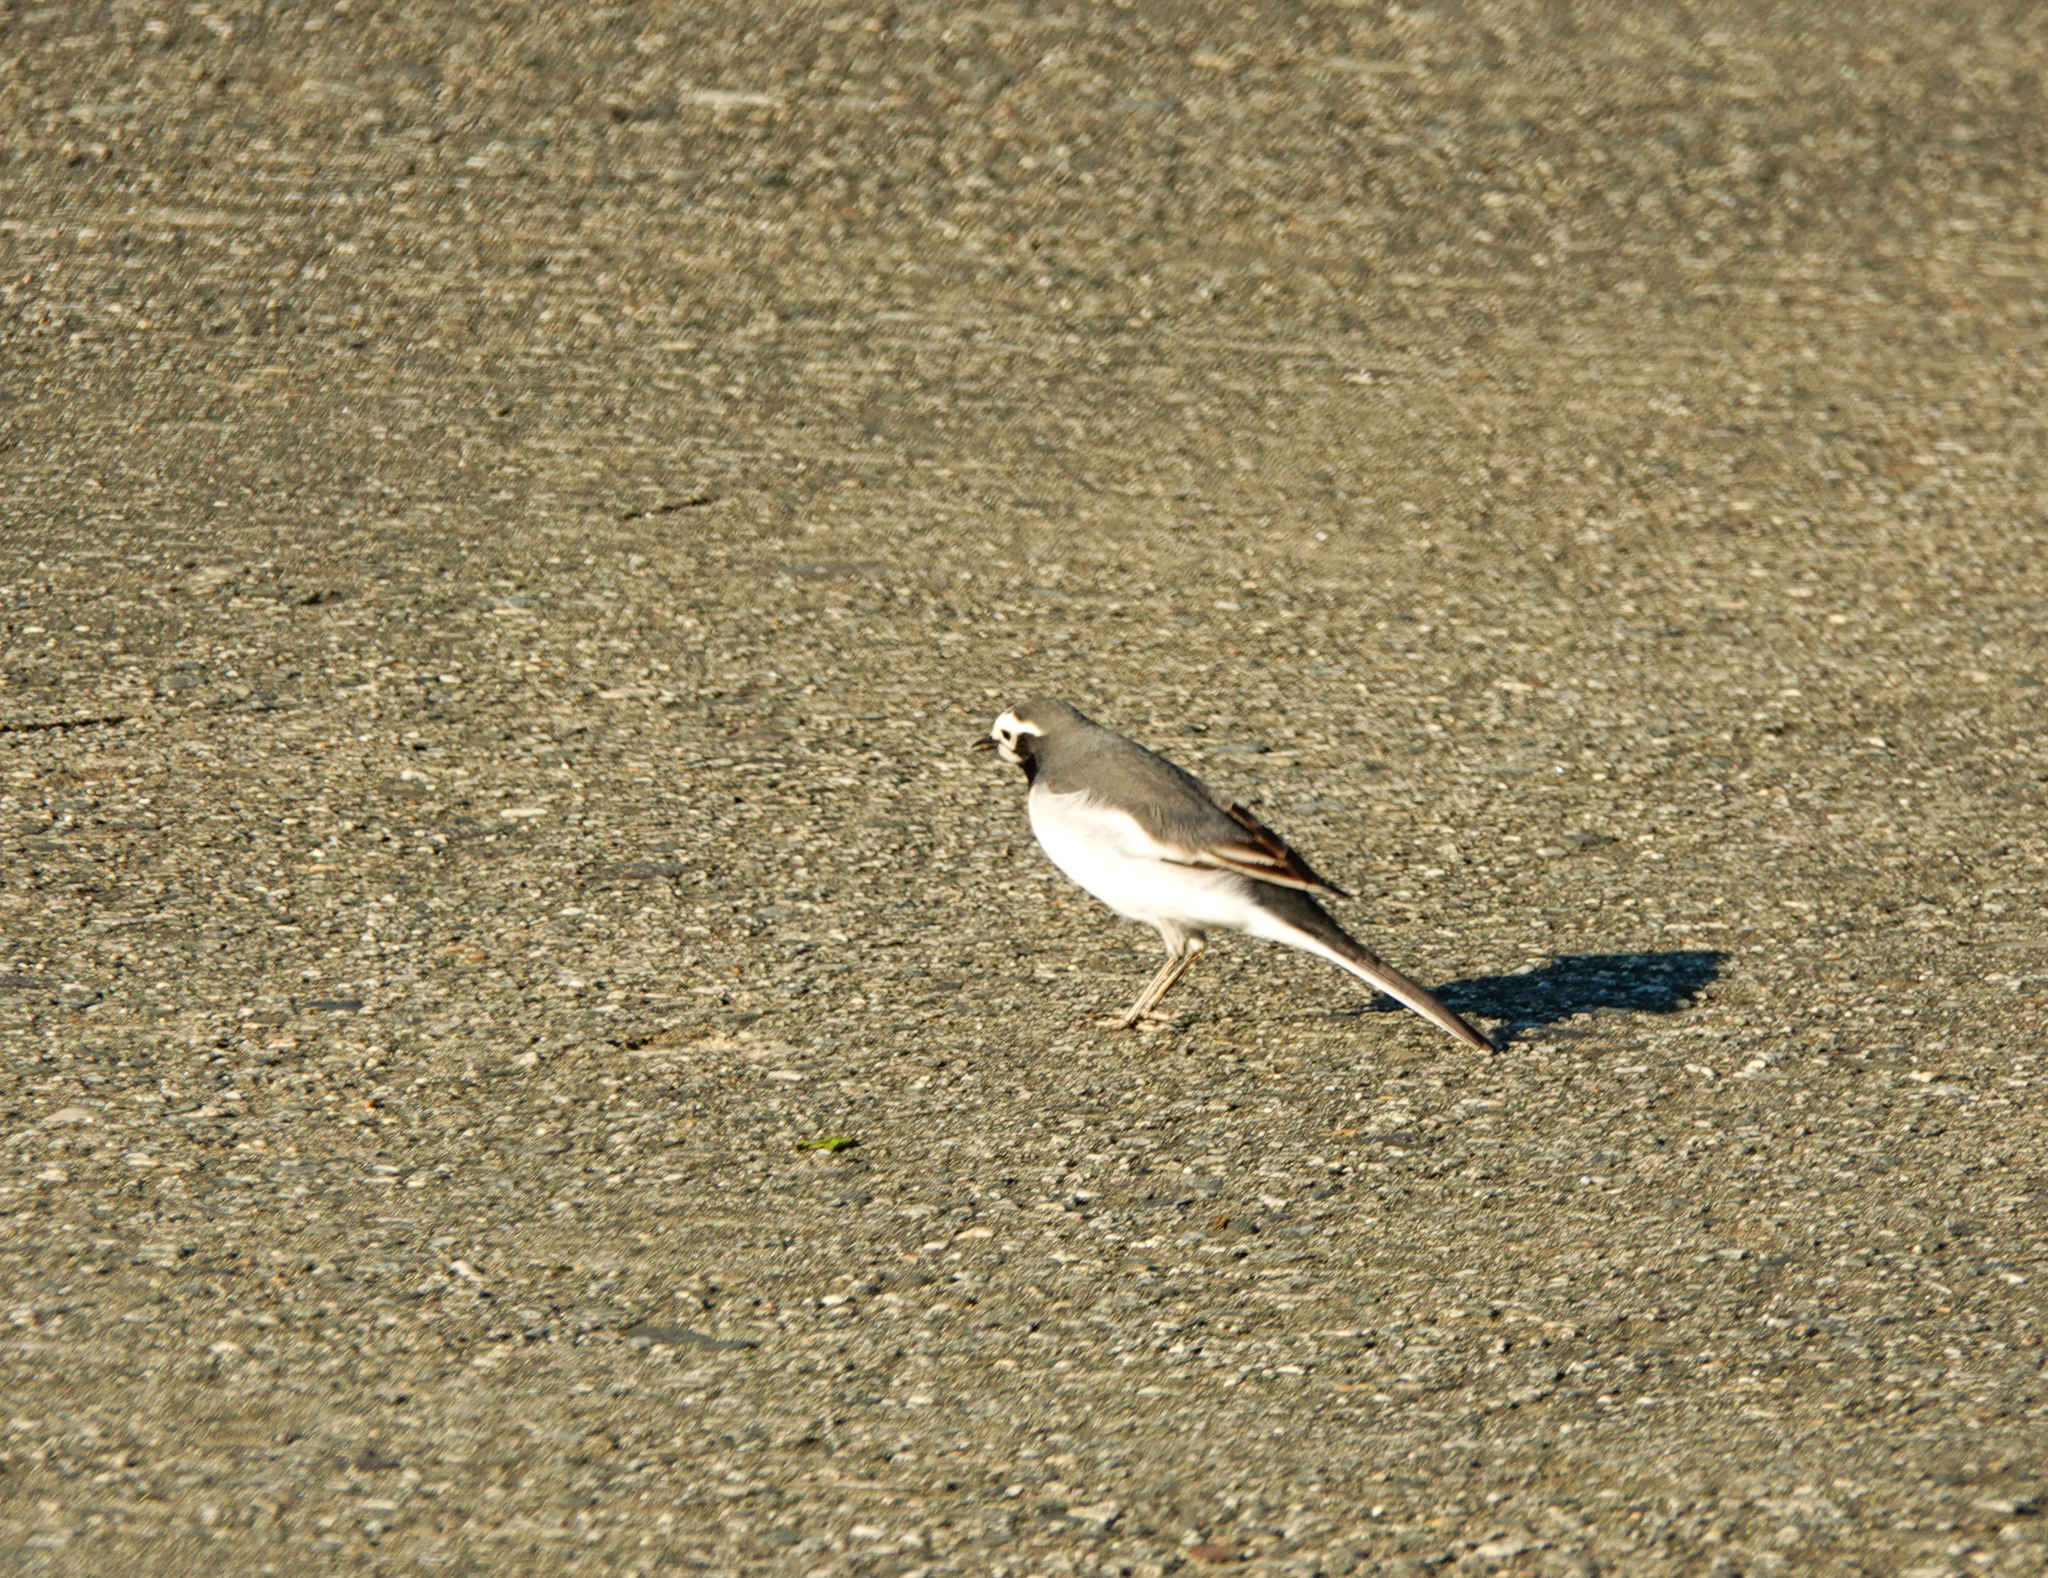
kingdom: Animalia
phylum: Chordata
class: Aves
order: Passeriformes
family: Motacillidae
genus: Motacilla
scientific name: Motacilla alba
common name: White wagtail
